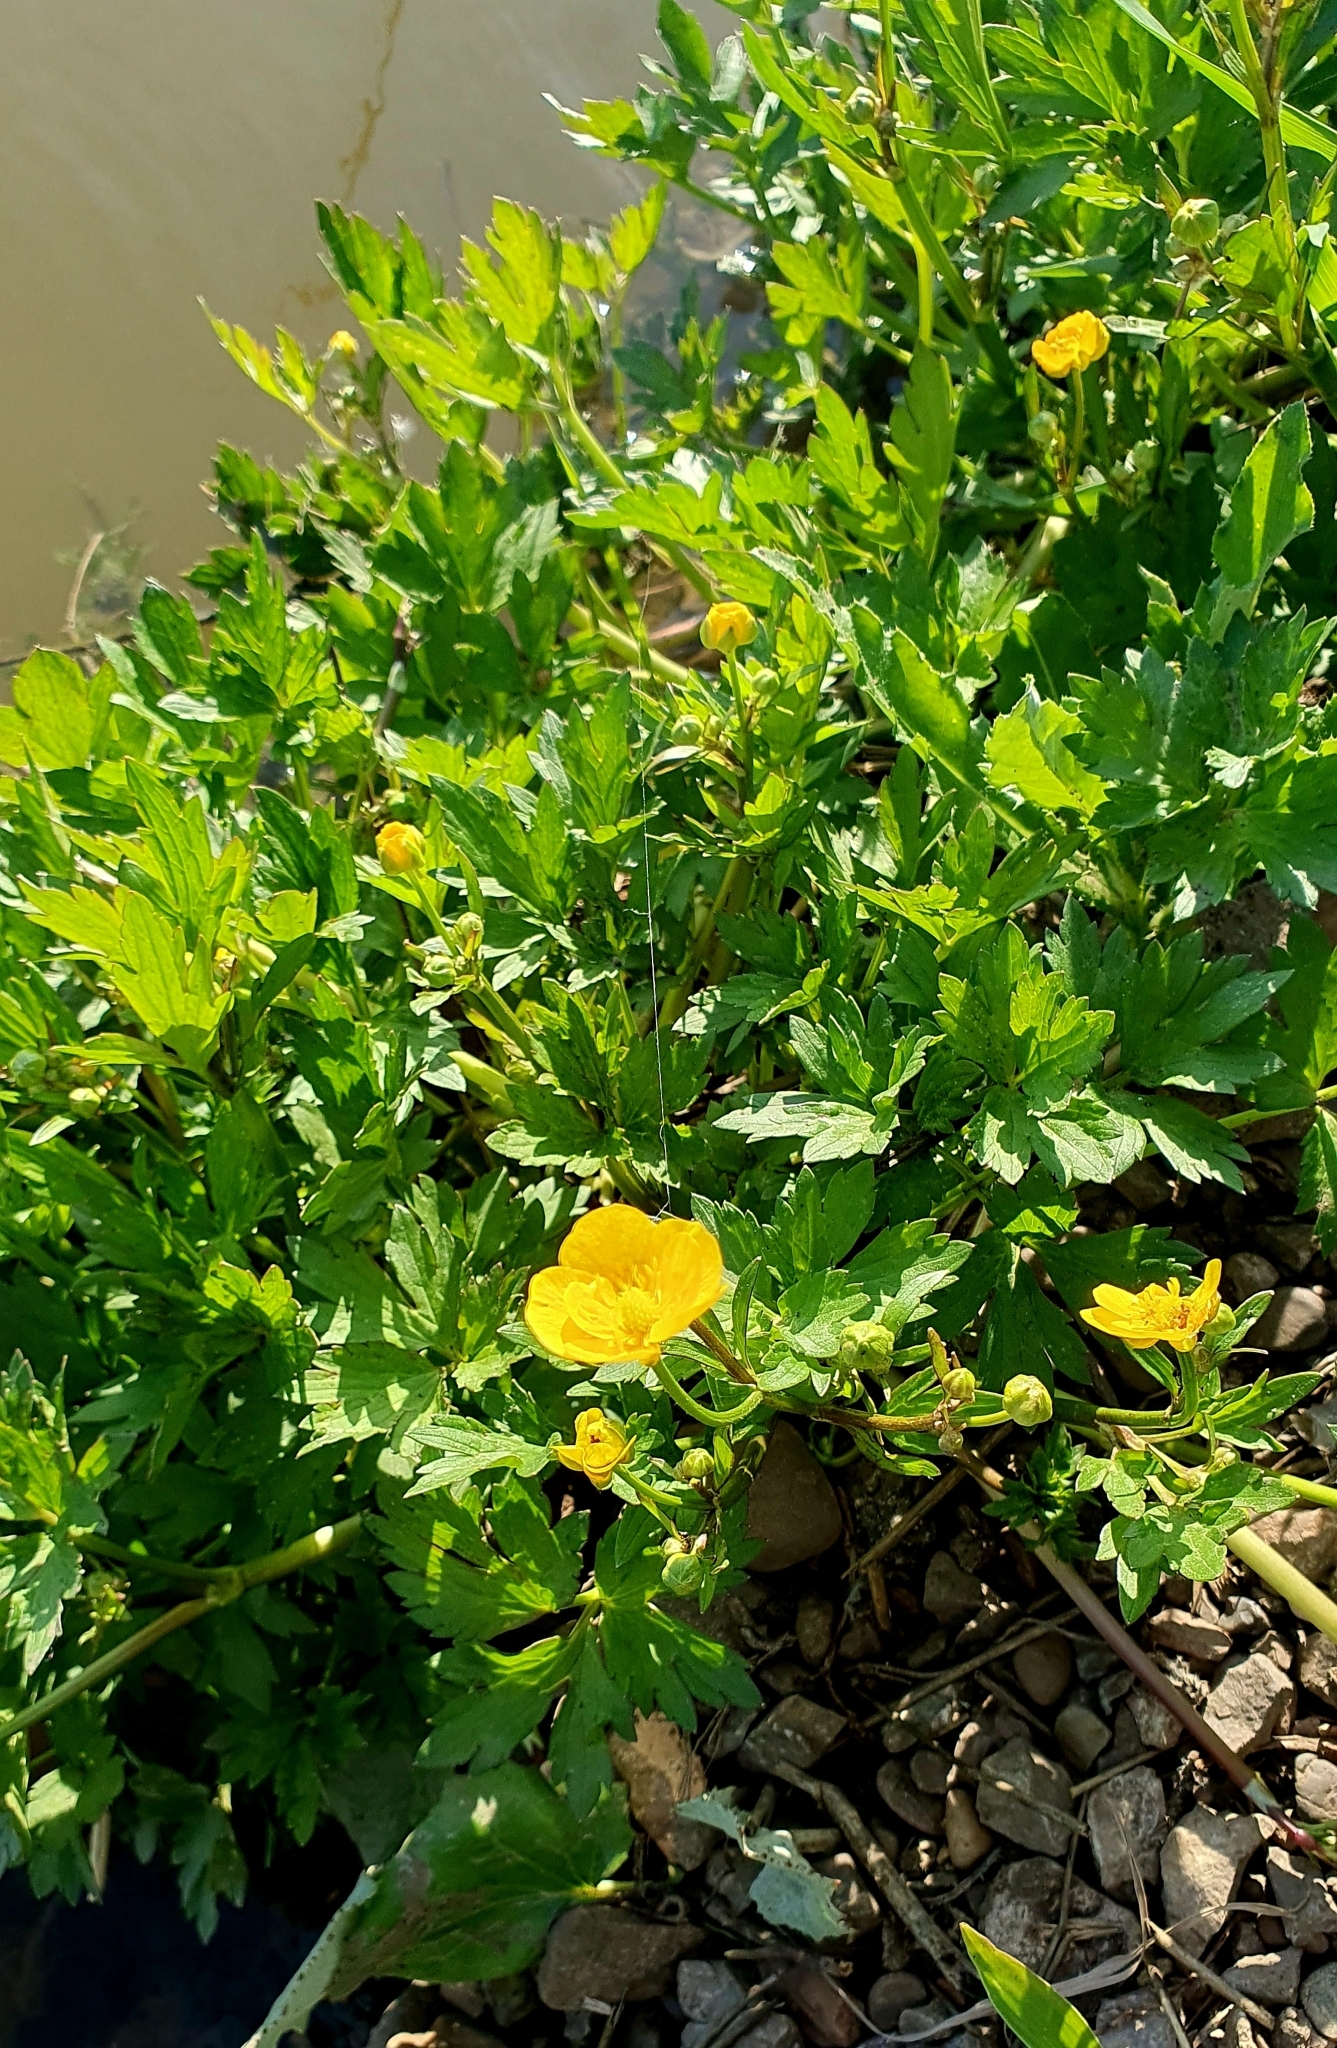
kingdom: Plantae
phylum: Tracheophyta
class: Magnoliopsida
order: Ranunculales
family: Ranunculaceae
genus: Ranunculus
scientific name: Ranunculus repens
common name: Creeping buttercup
